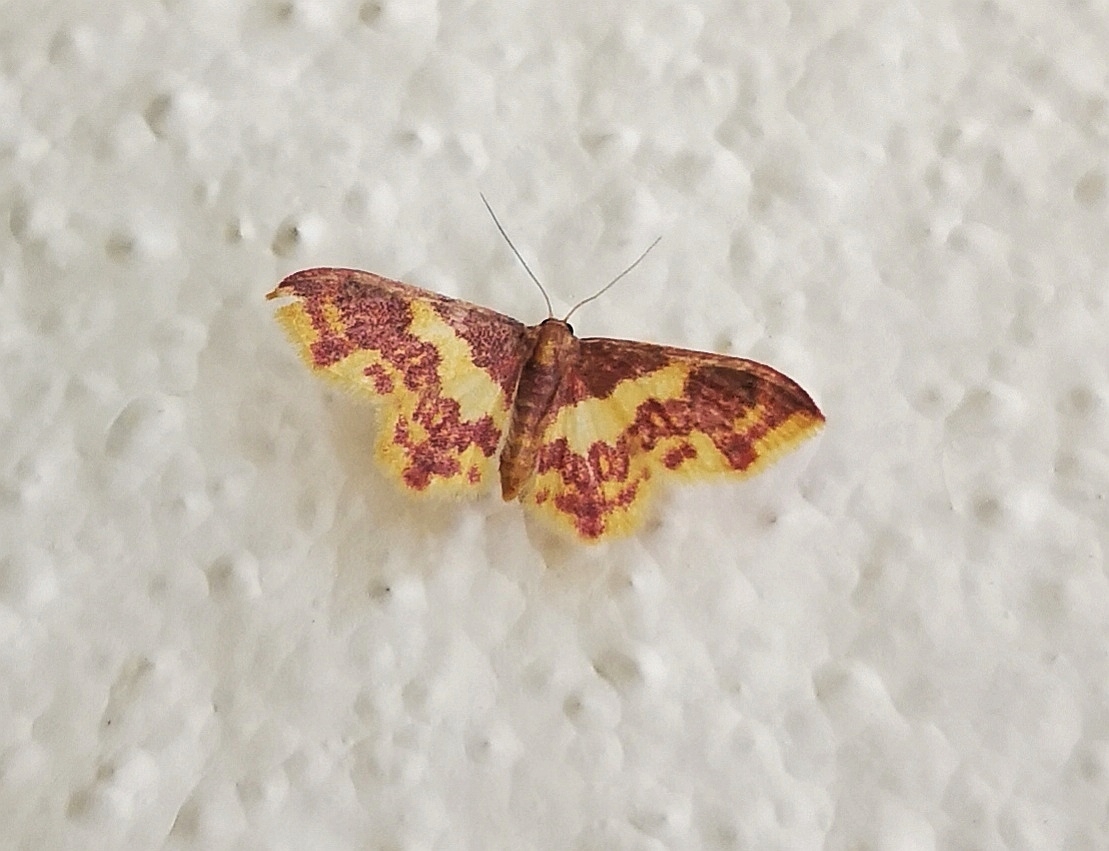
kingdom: Animalia
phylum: Arthropoda
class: Insecta
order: Lepidoptera
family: Geometridae
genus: Lophosis
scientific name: Lophosis labeculata
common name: Stained lophosis moth
